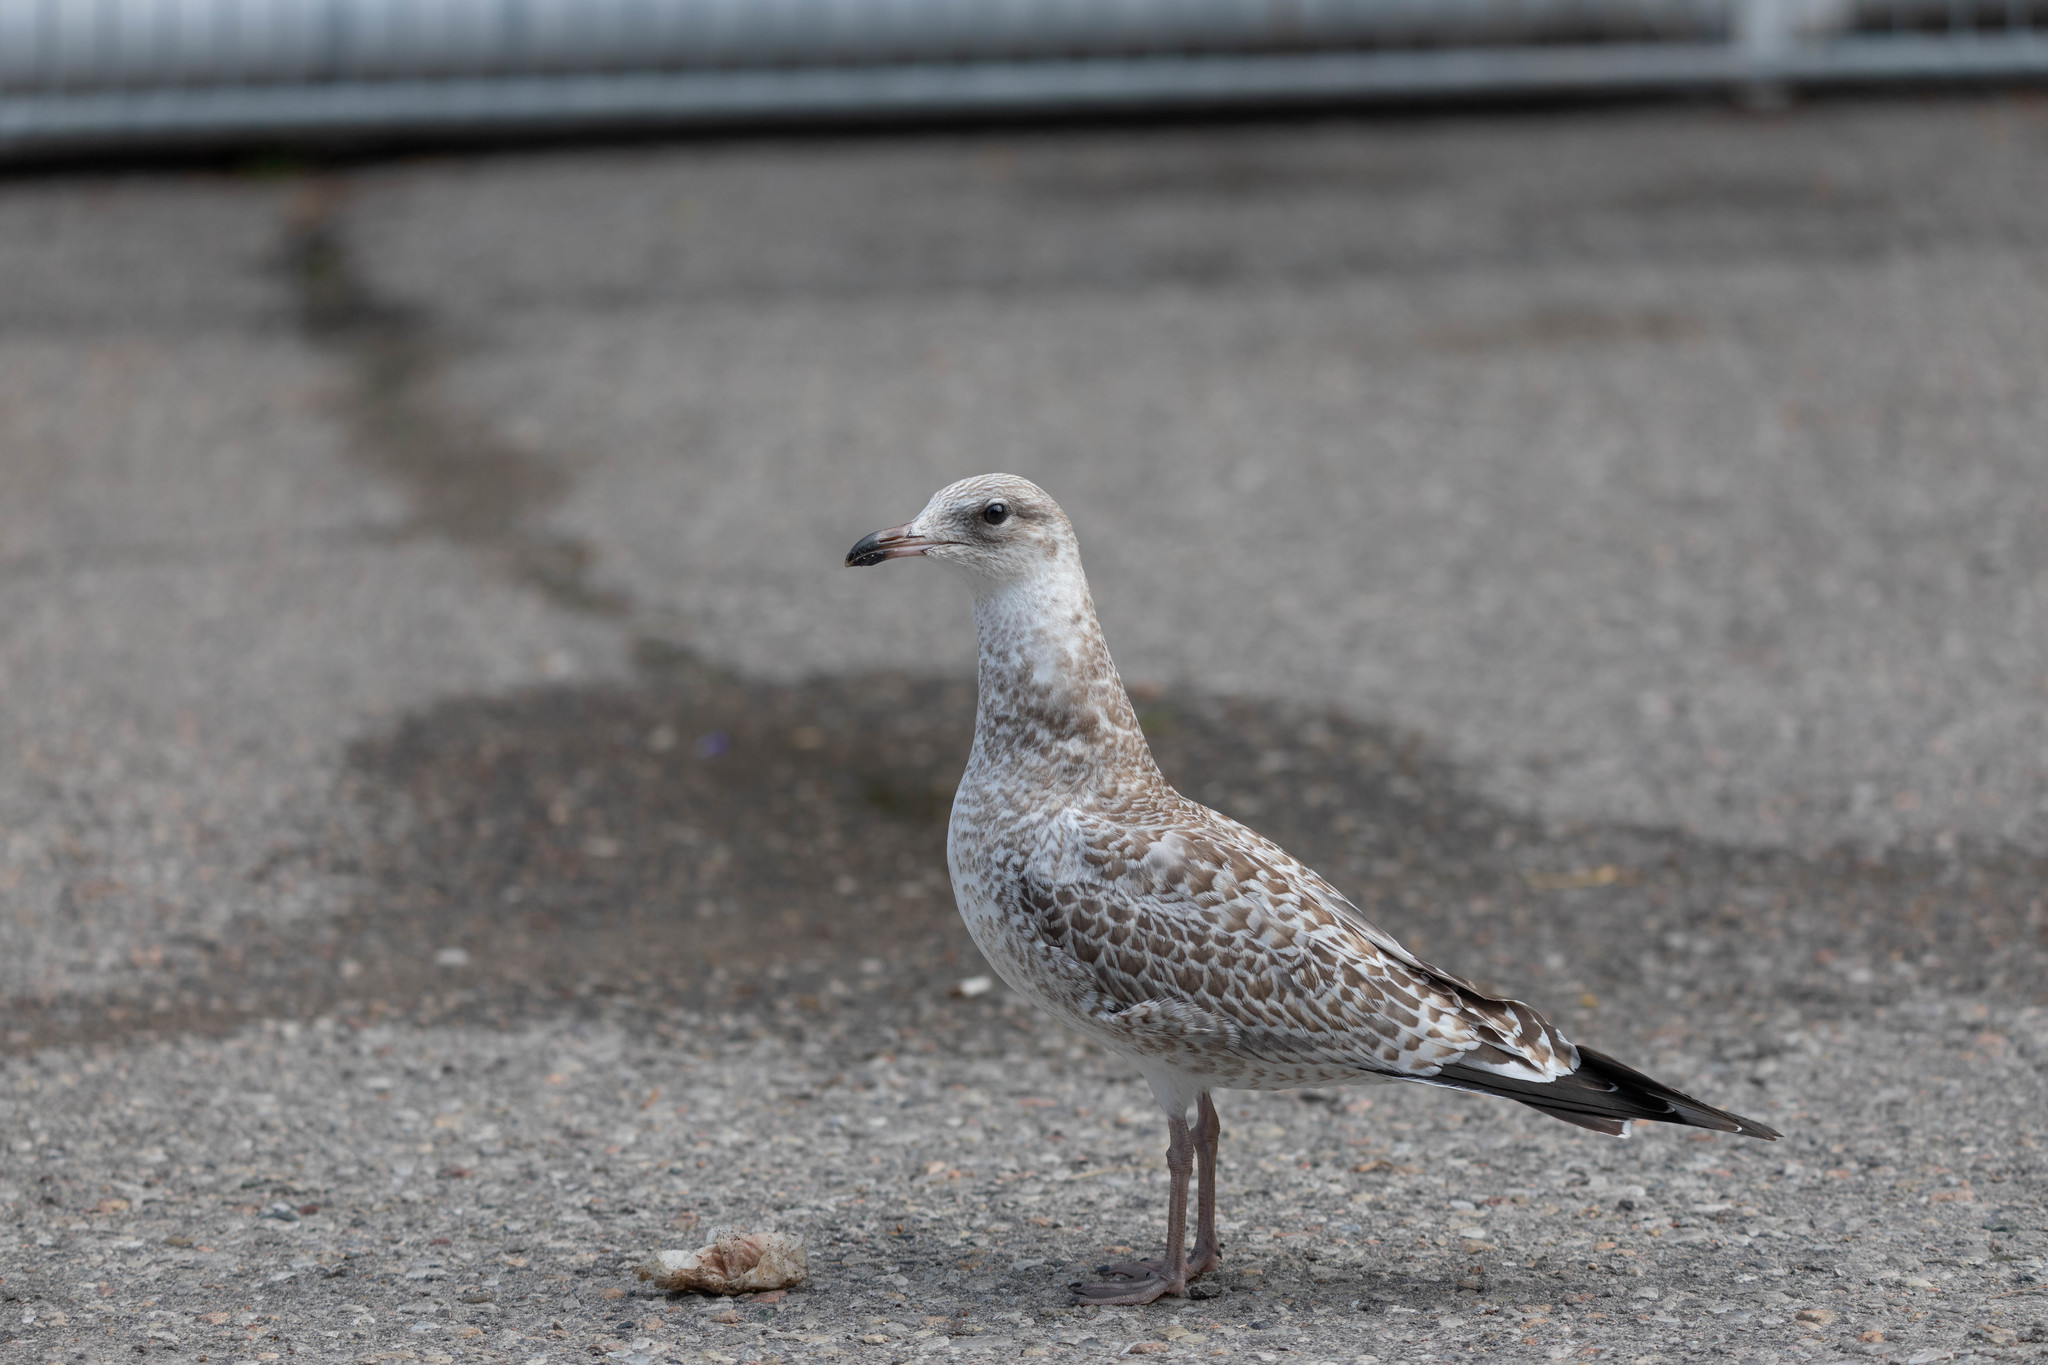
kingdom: Animalia
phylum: Chordata
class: Aves
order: Charadriiformes
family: Laridae
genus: Larus
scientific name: Larus delawarensis
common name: Ring-billed gull
